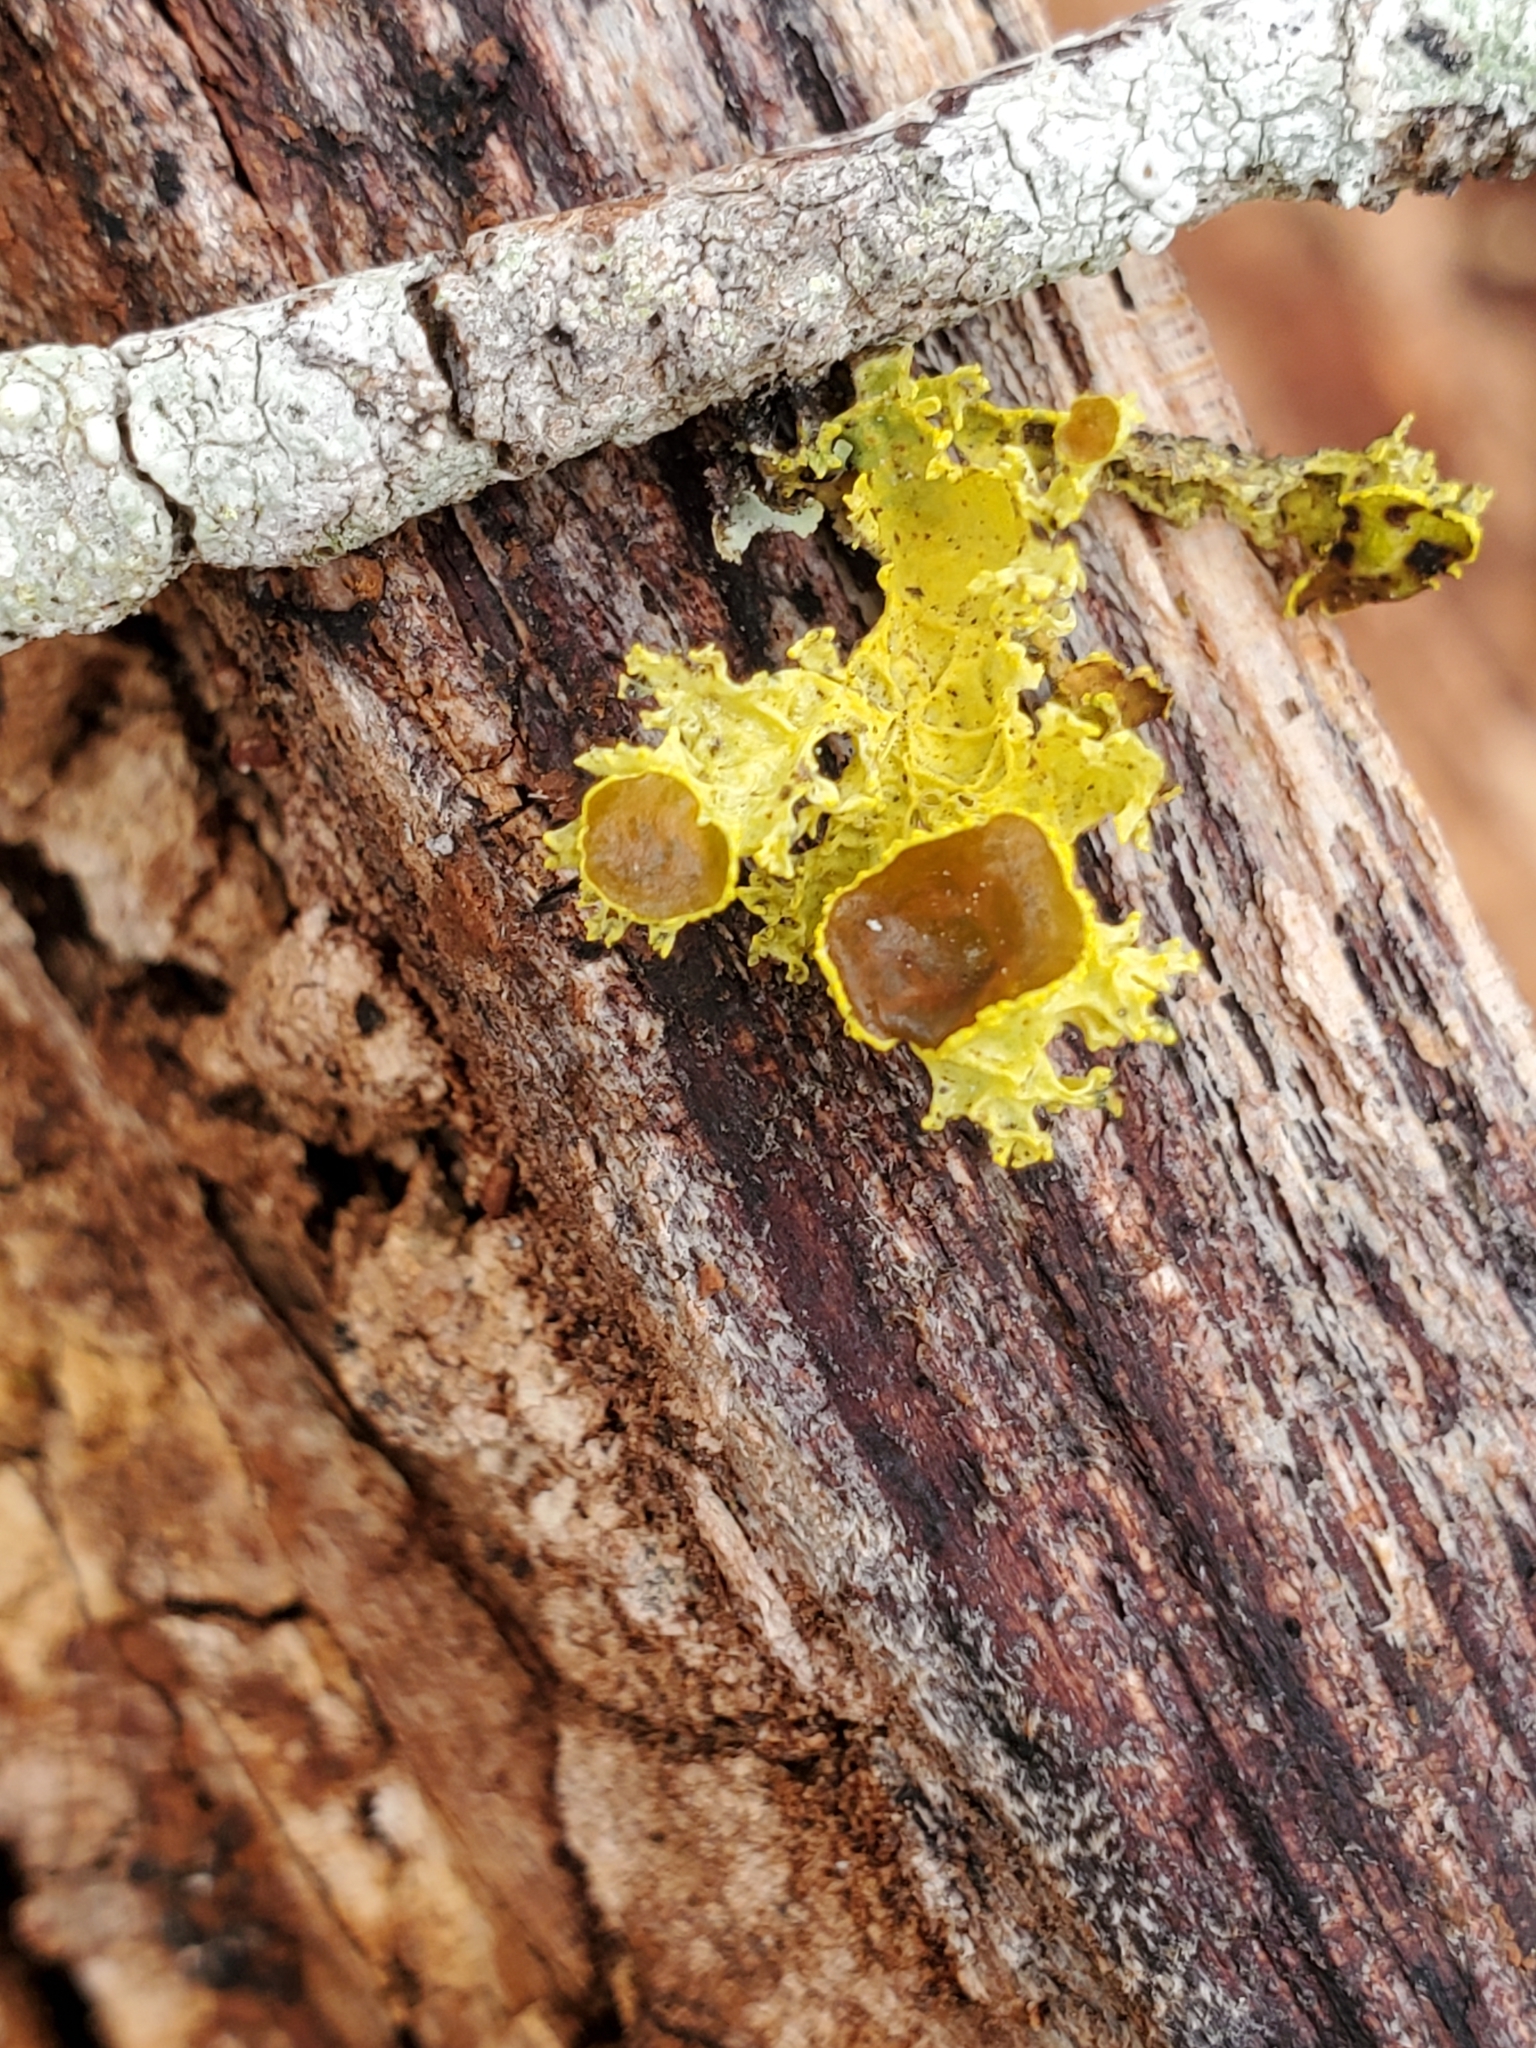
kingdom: Fungi
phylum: Ascomycota
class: Lecanoromycetes
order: Lecanorales
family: Parmeliaceae
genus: Vulpicida
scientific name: Vulpicida canadensis
